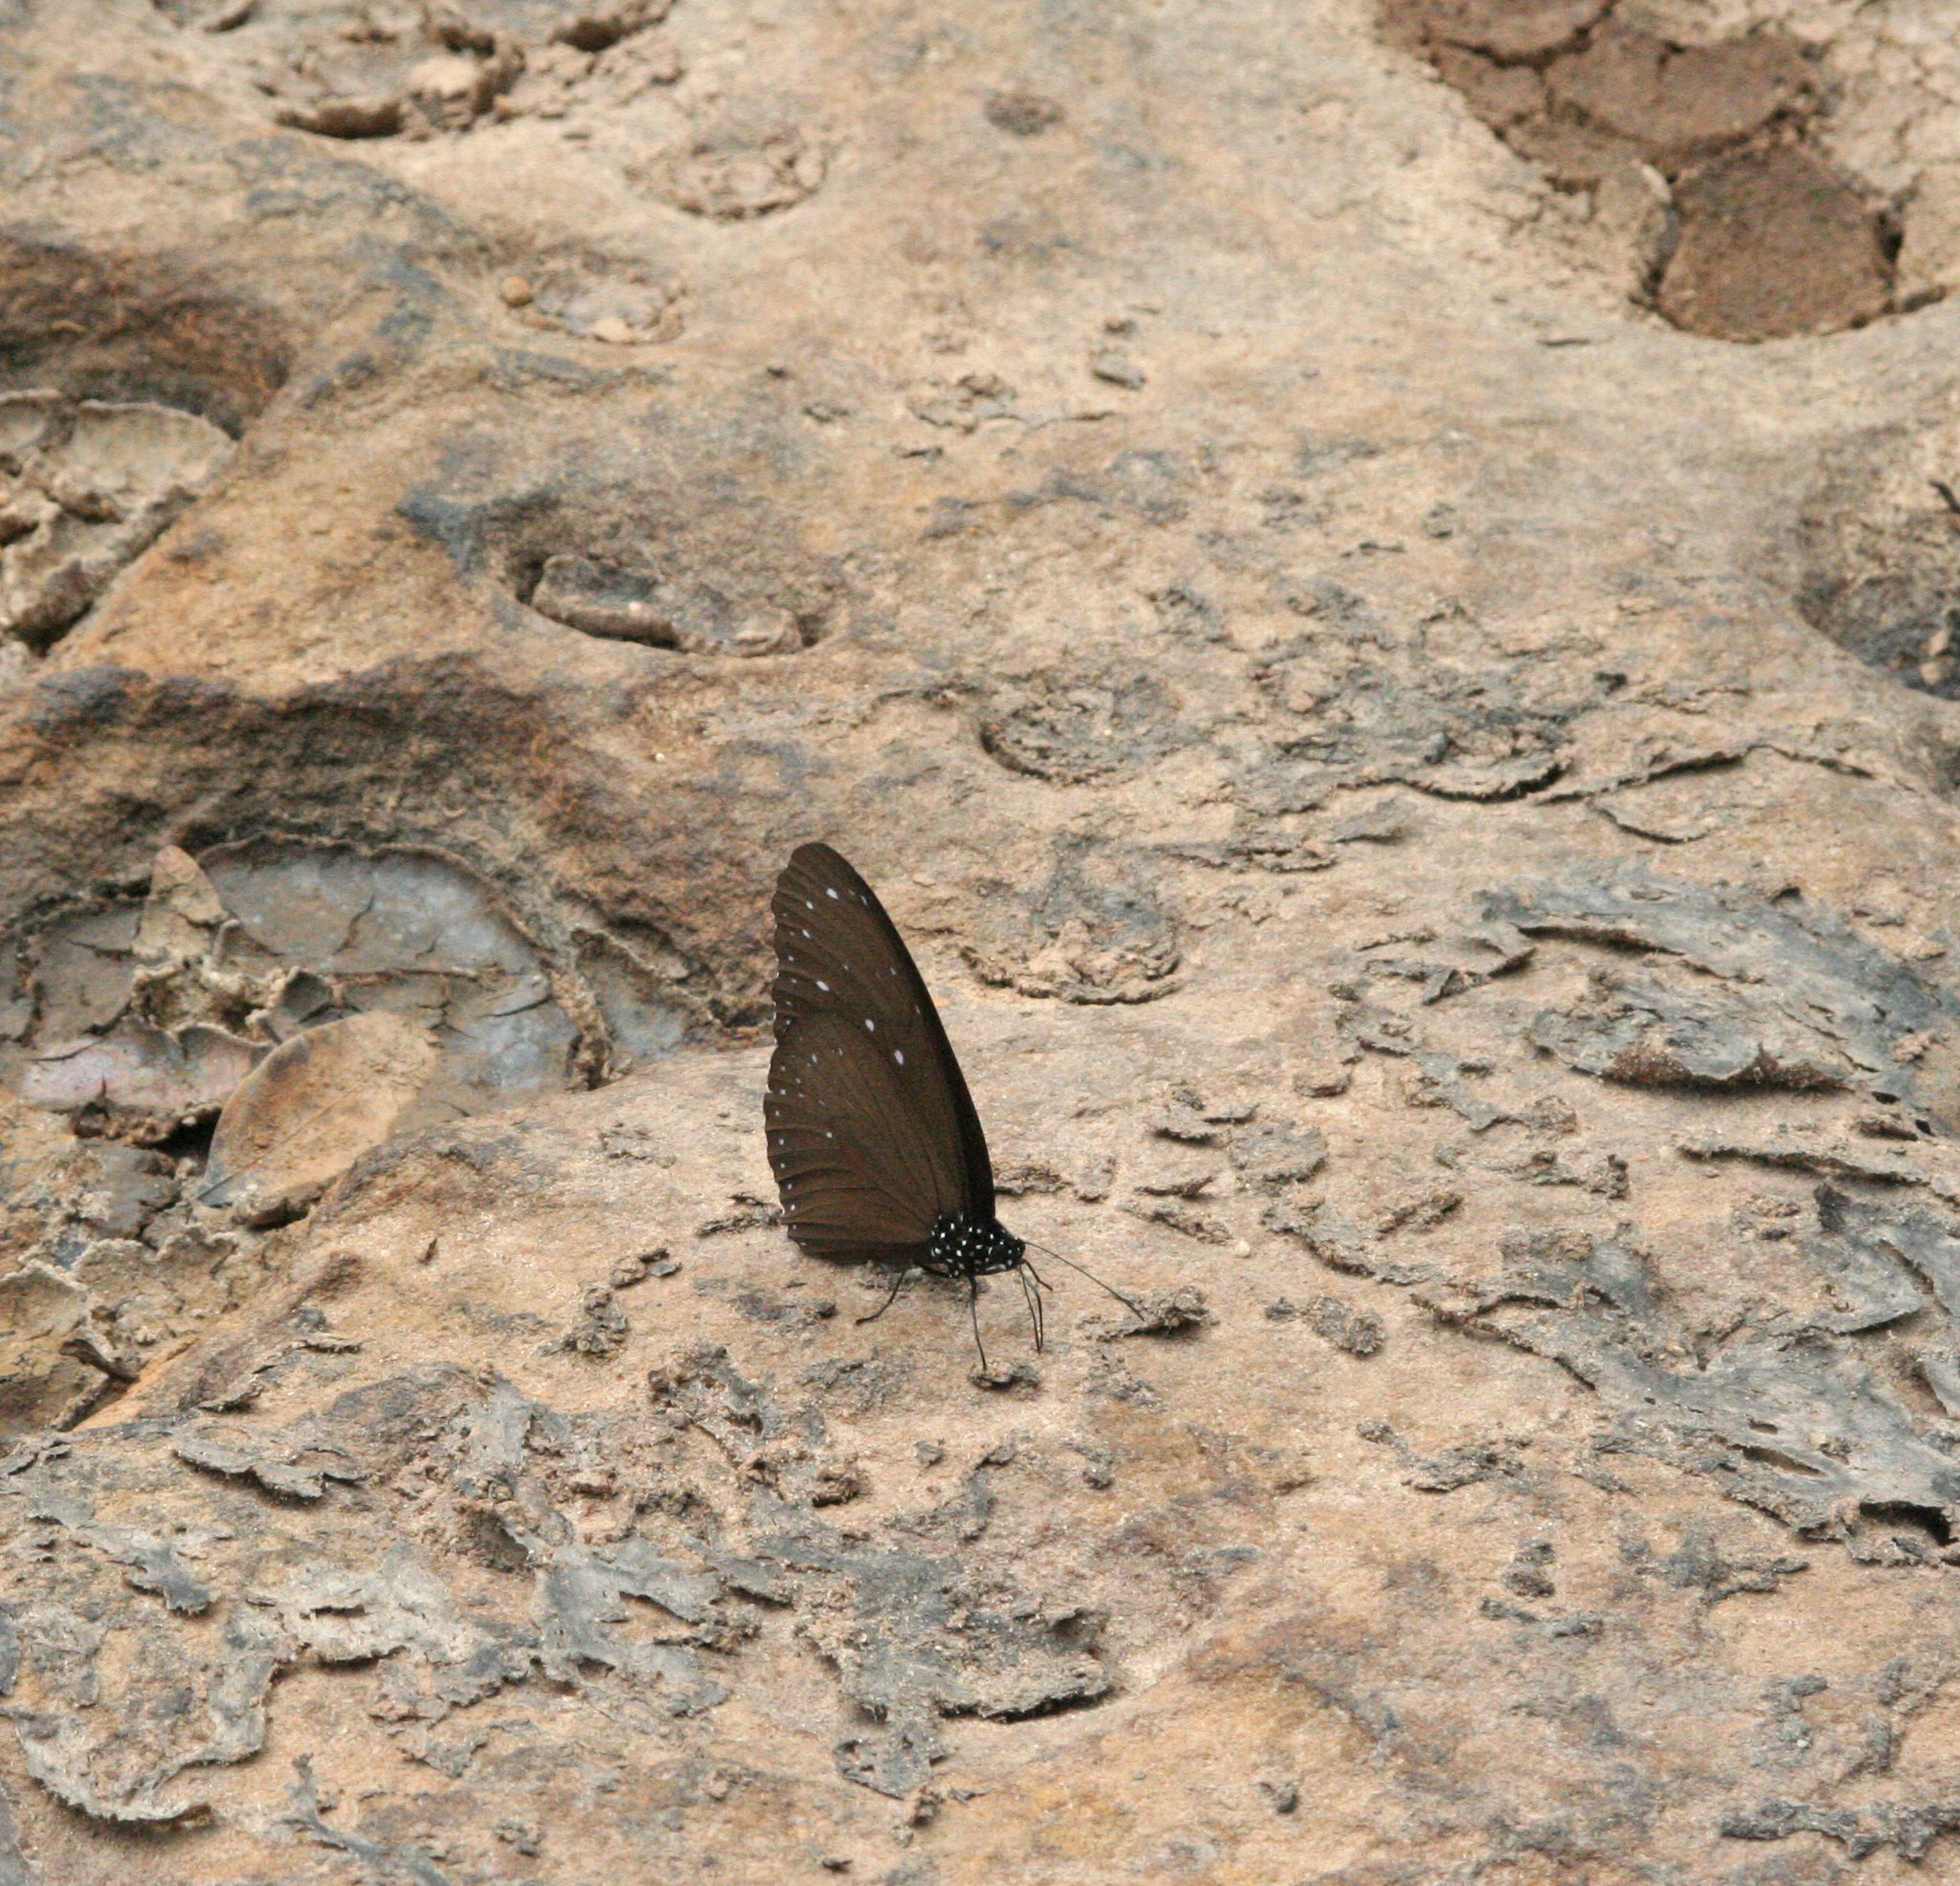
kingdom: Animalia
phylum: Arthropoda
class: Insecta
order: Lepidoptera
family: Nymphalidae
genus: Euploea
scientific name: Euploea mulciber
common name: Striped blue crow butterfly
